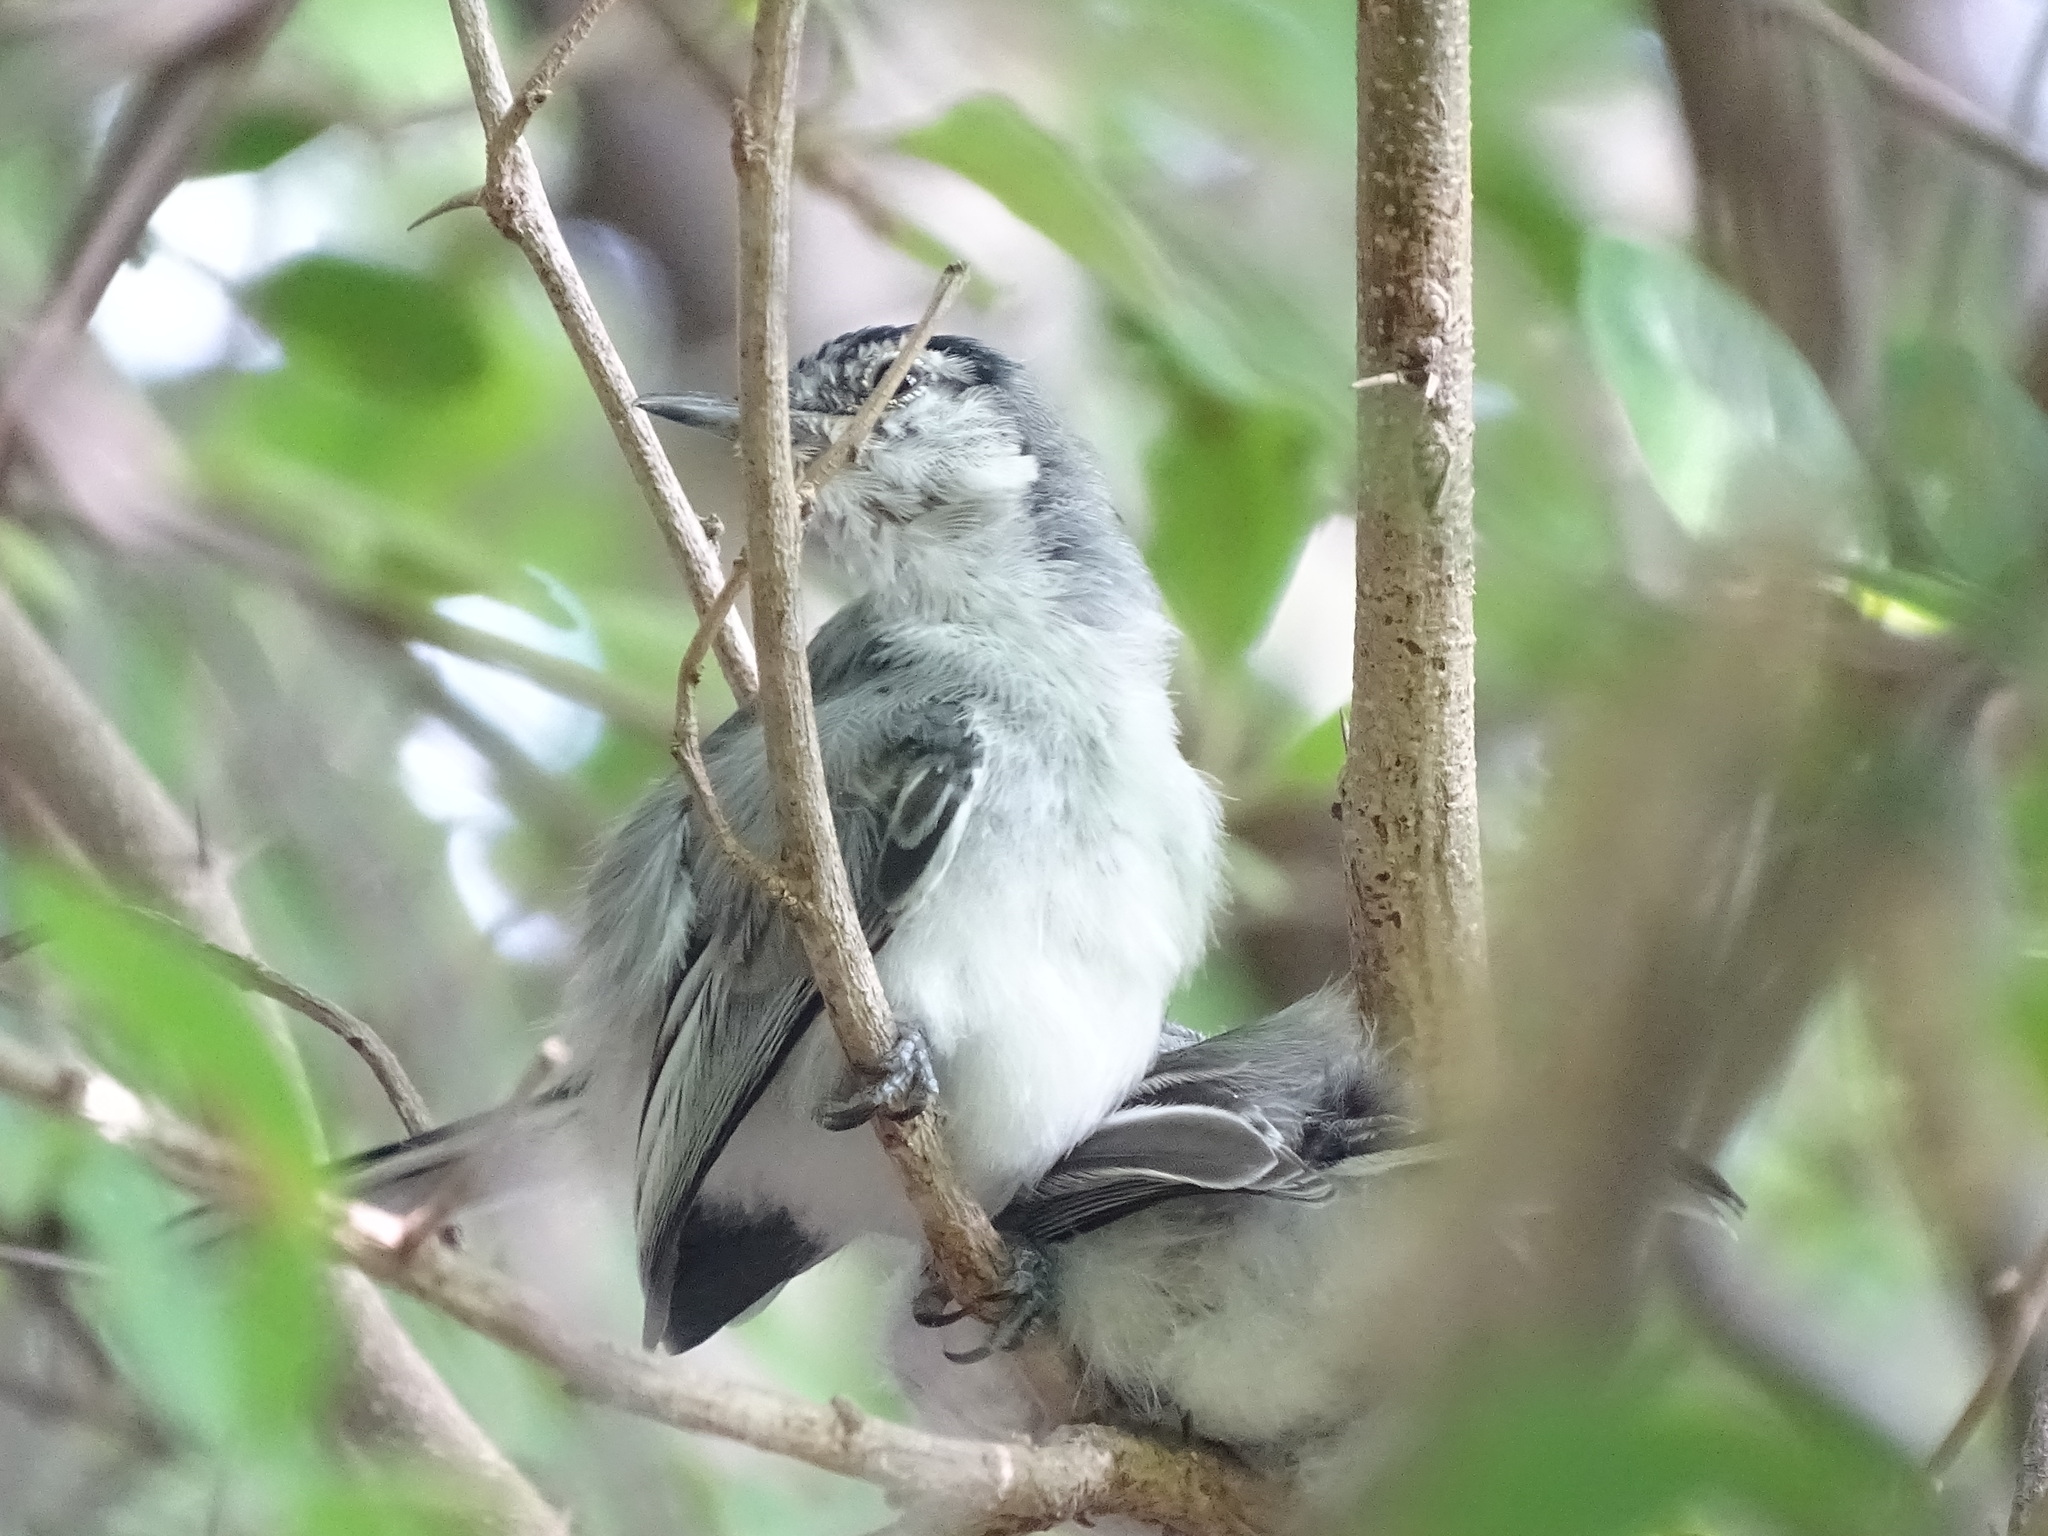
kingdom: Animalia
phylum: Chordata
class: Aves
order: Passeriformes
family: Polioptilidae
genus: Polioptila
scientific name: Polioptila albiloris
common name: White-lored gnatcatcher
